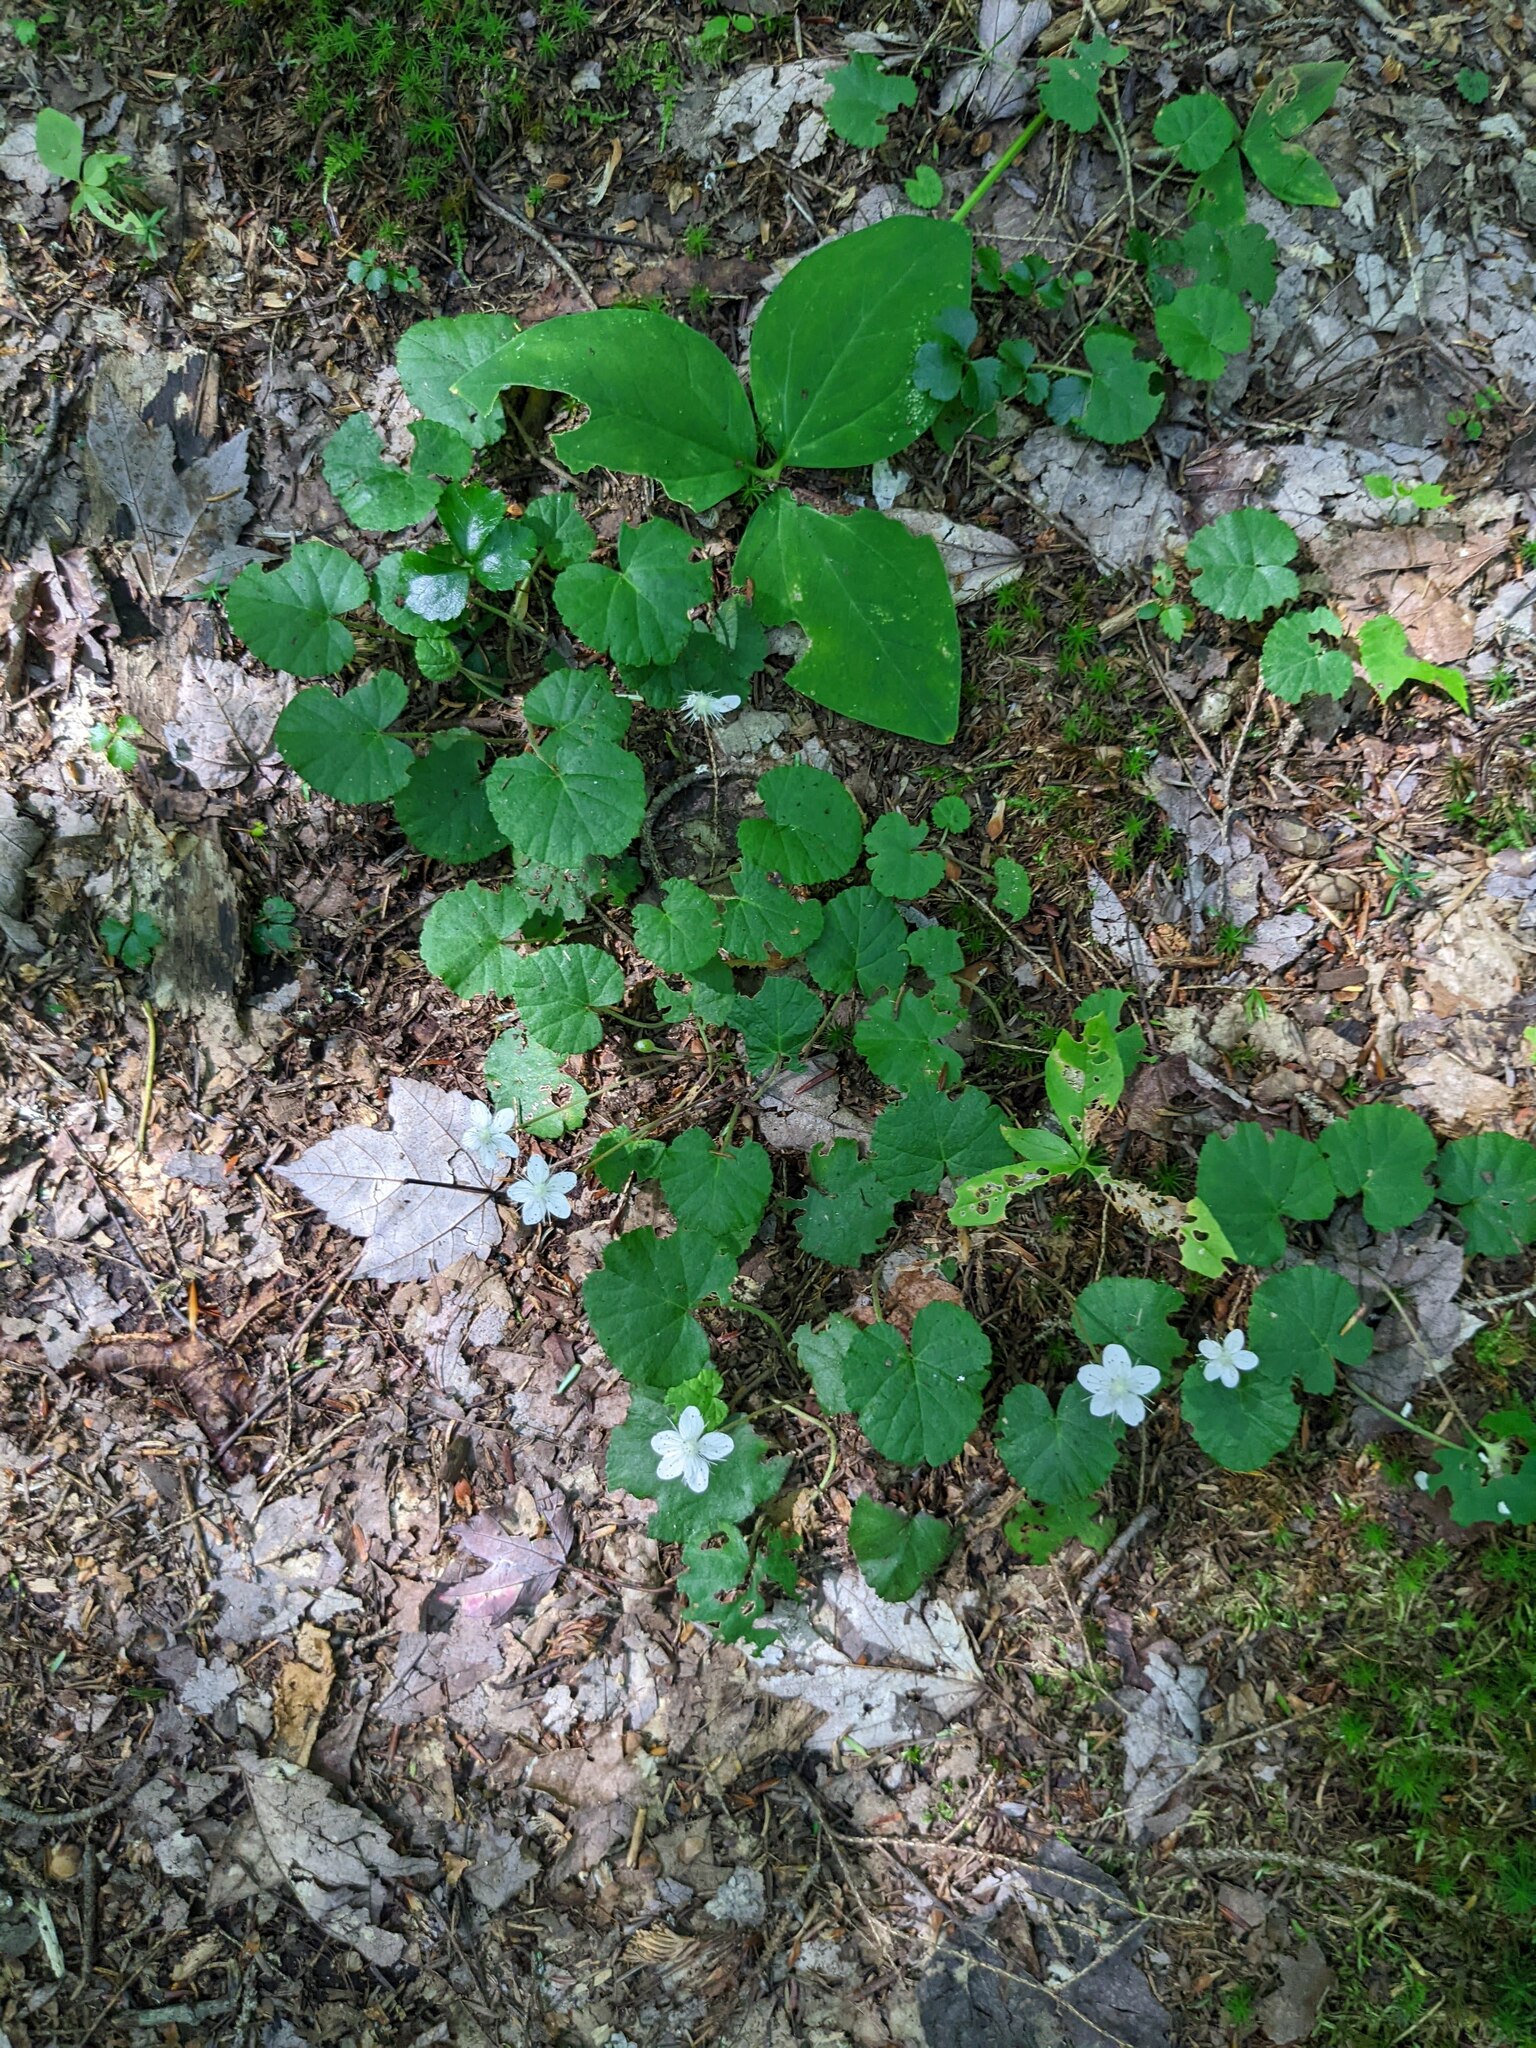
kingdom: Plantae
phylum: Tracheophyta
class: Magnoliopsida
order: Rosales
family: Rosaceae
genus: Dalibarda
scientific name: Dalibarda repens
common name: Dewdrop
